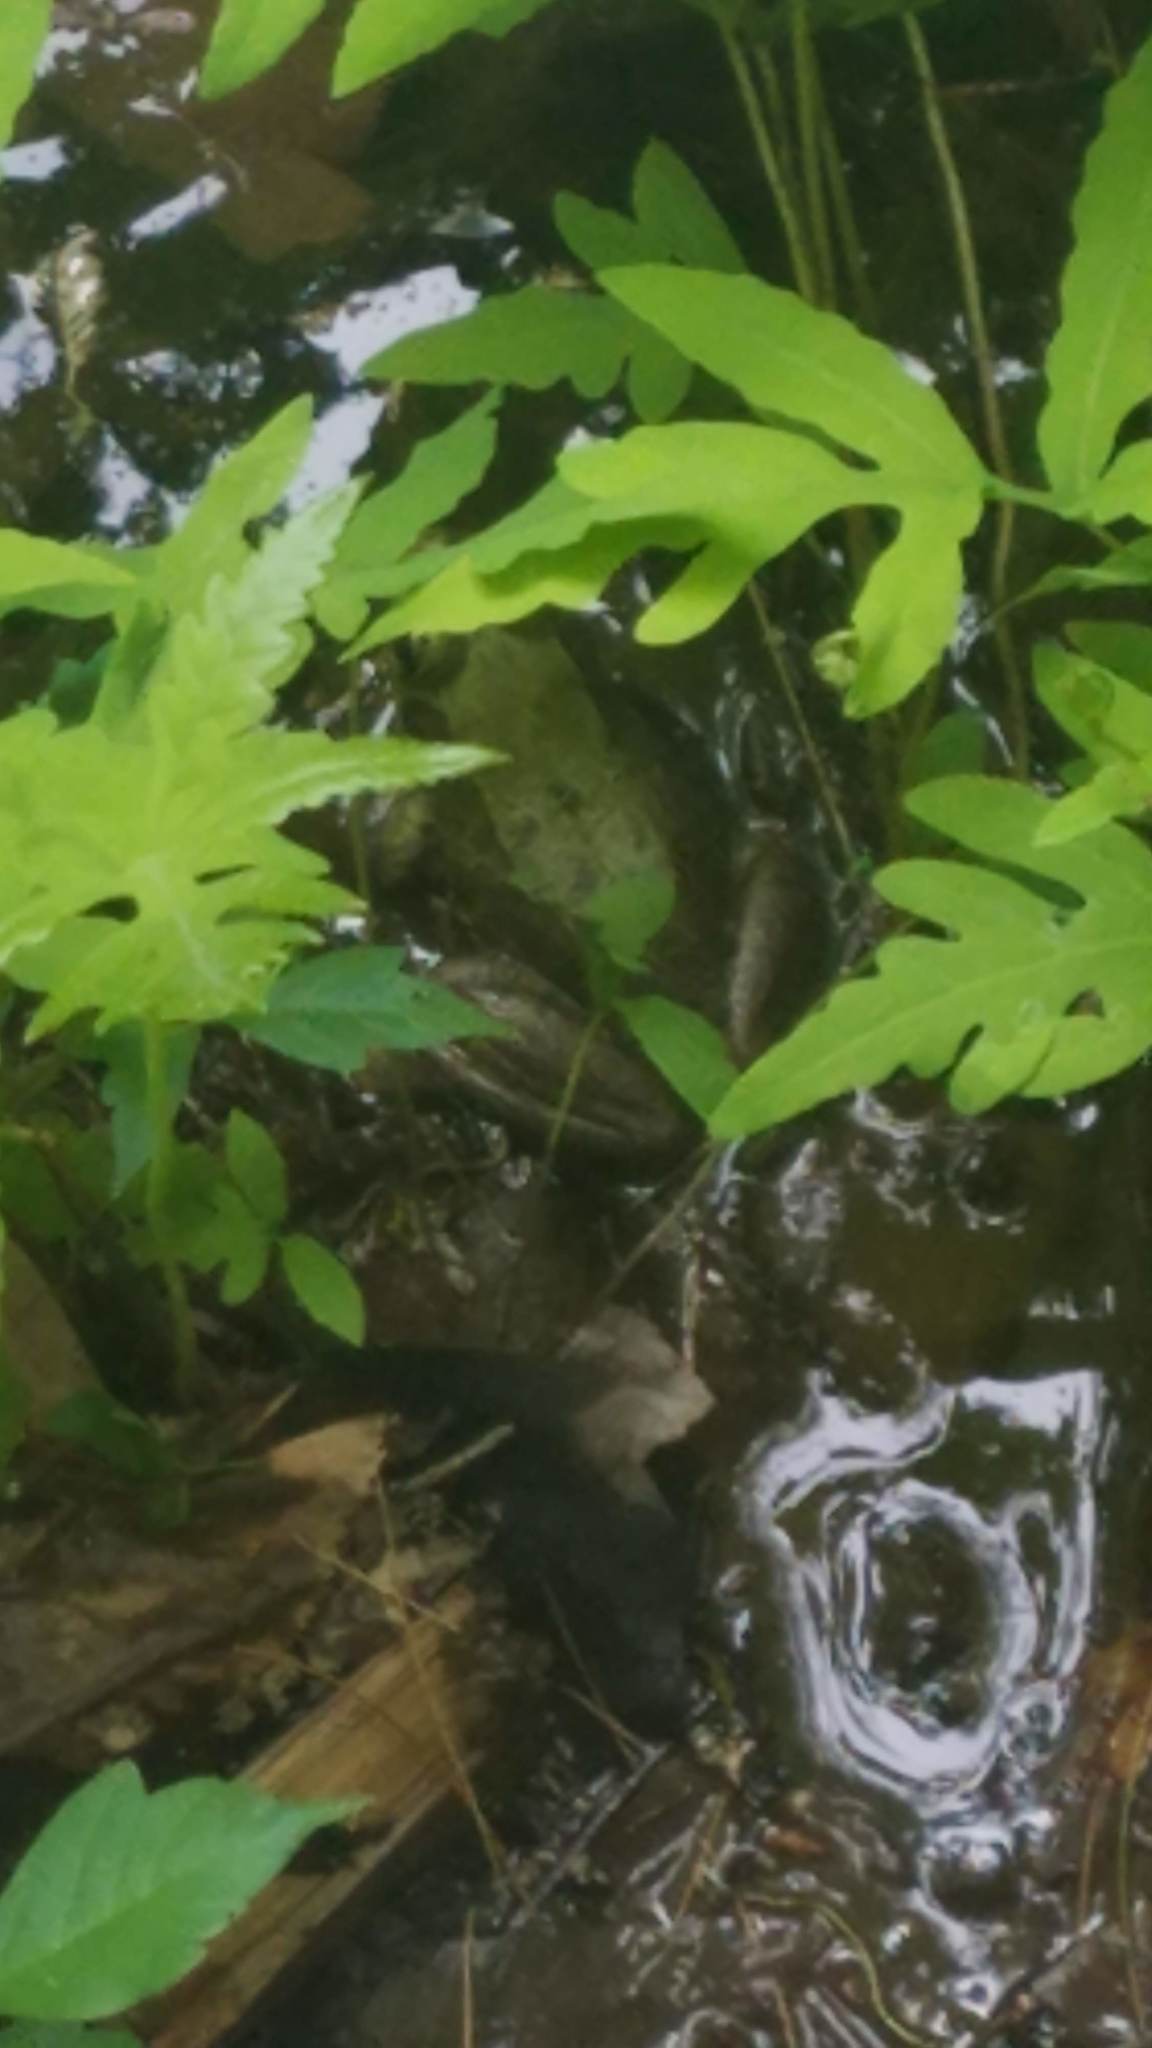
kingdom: Animalia
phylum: Chordata
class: Amphibia
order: Anura
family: Ranidae
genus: Lithobates
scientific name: Lithobates clamitans
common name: Green frog
